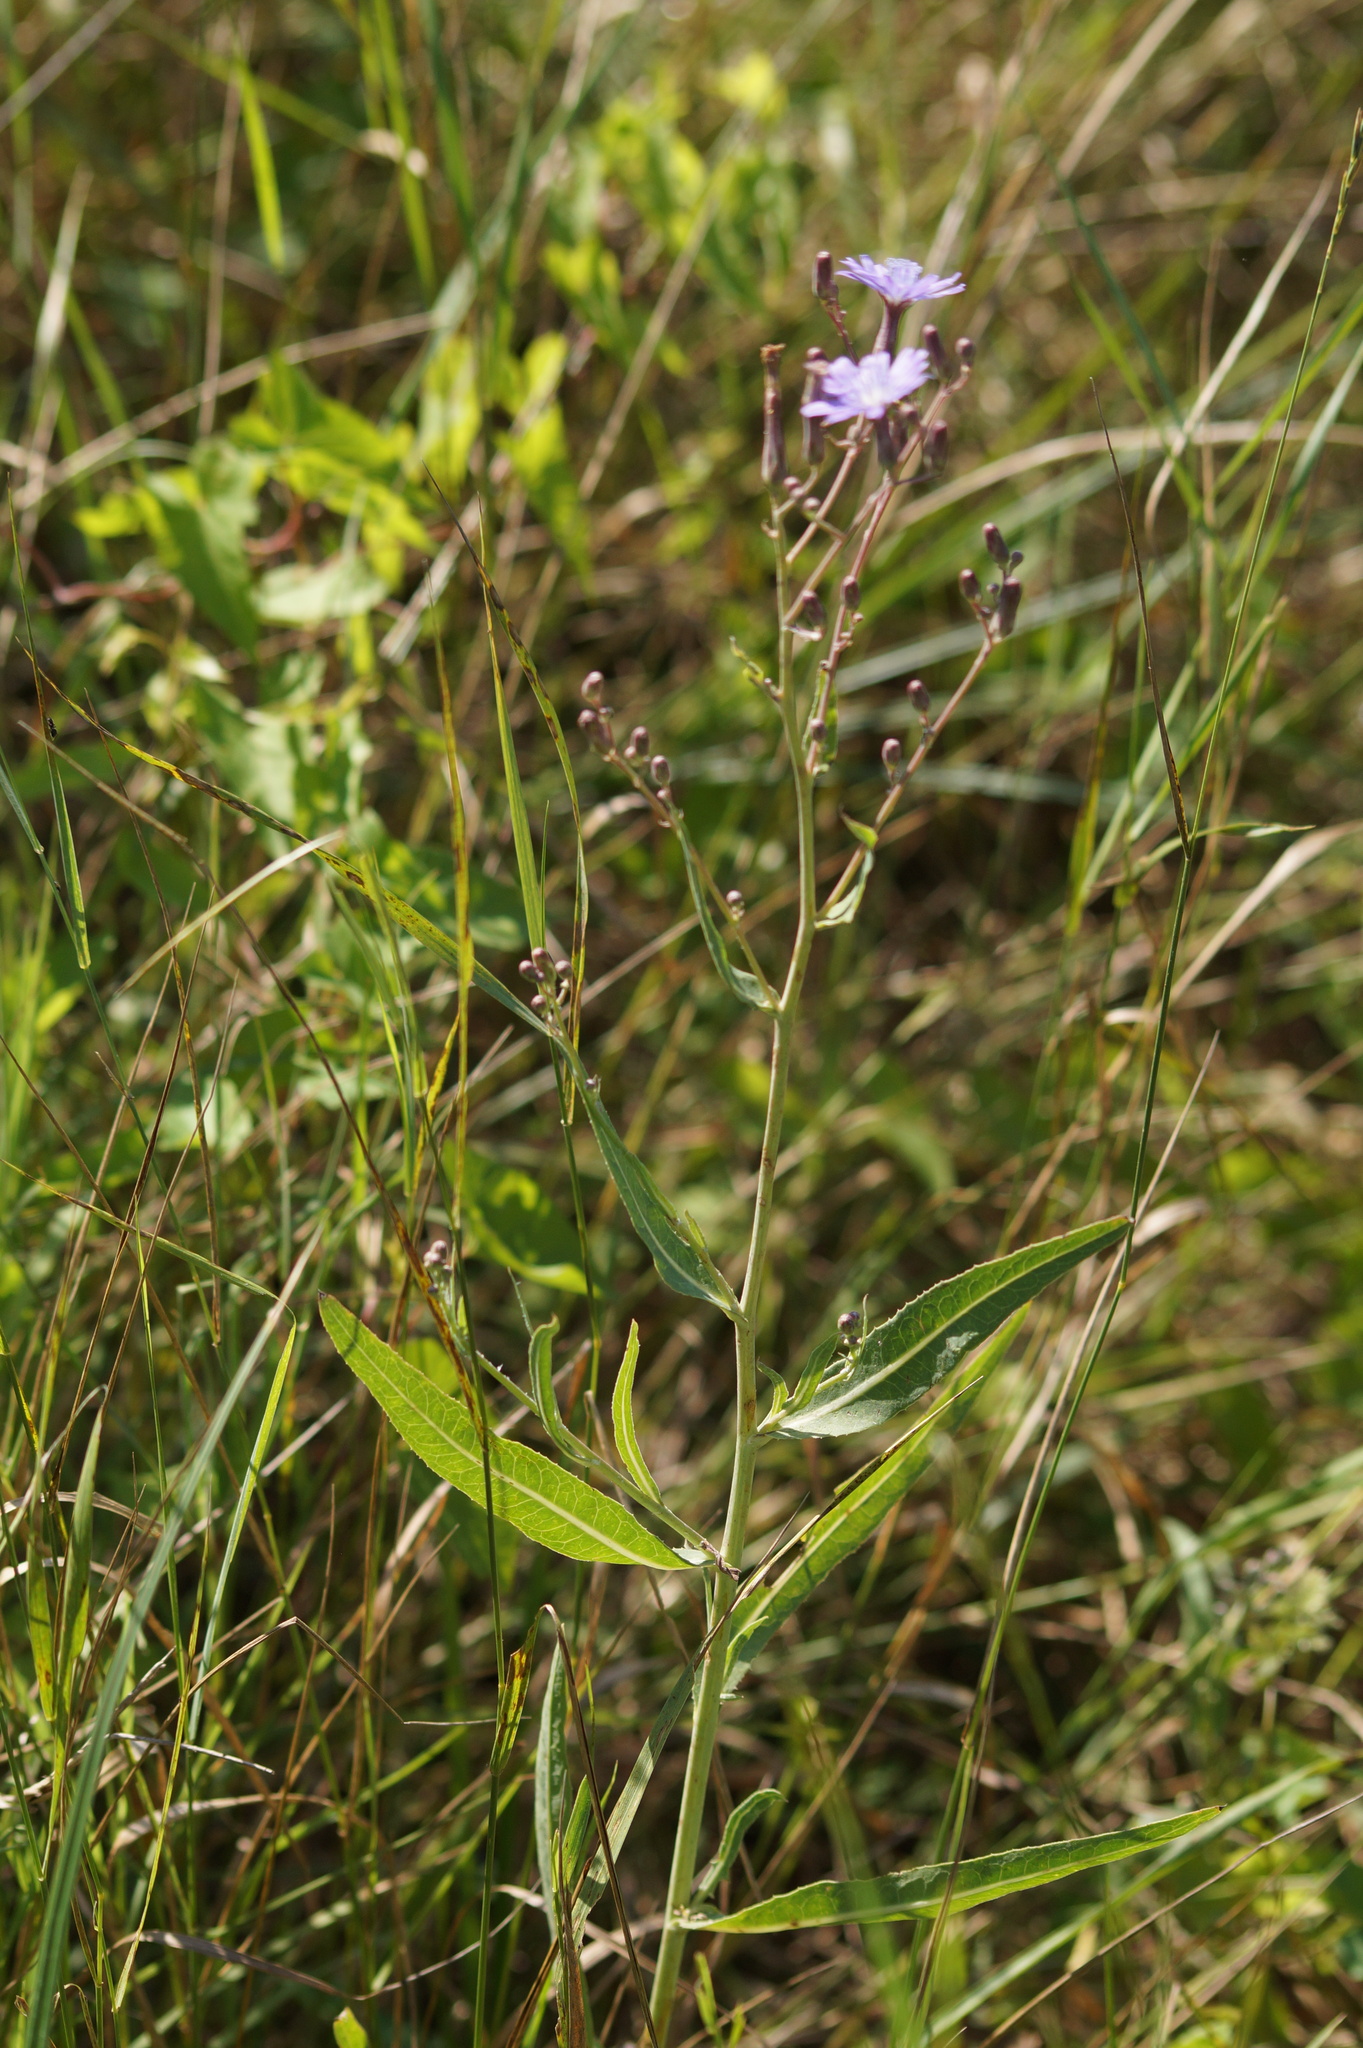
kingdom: Plantae
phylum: Tracheophyta
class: Magnoliopsida
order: Asterales
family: Asteraceae
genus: Lactuca
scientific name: Lactuca tatarica
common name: Blue lettuce
